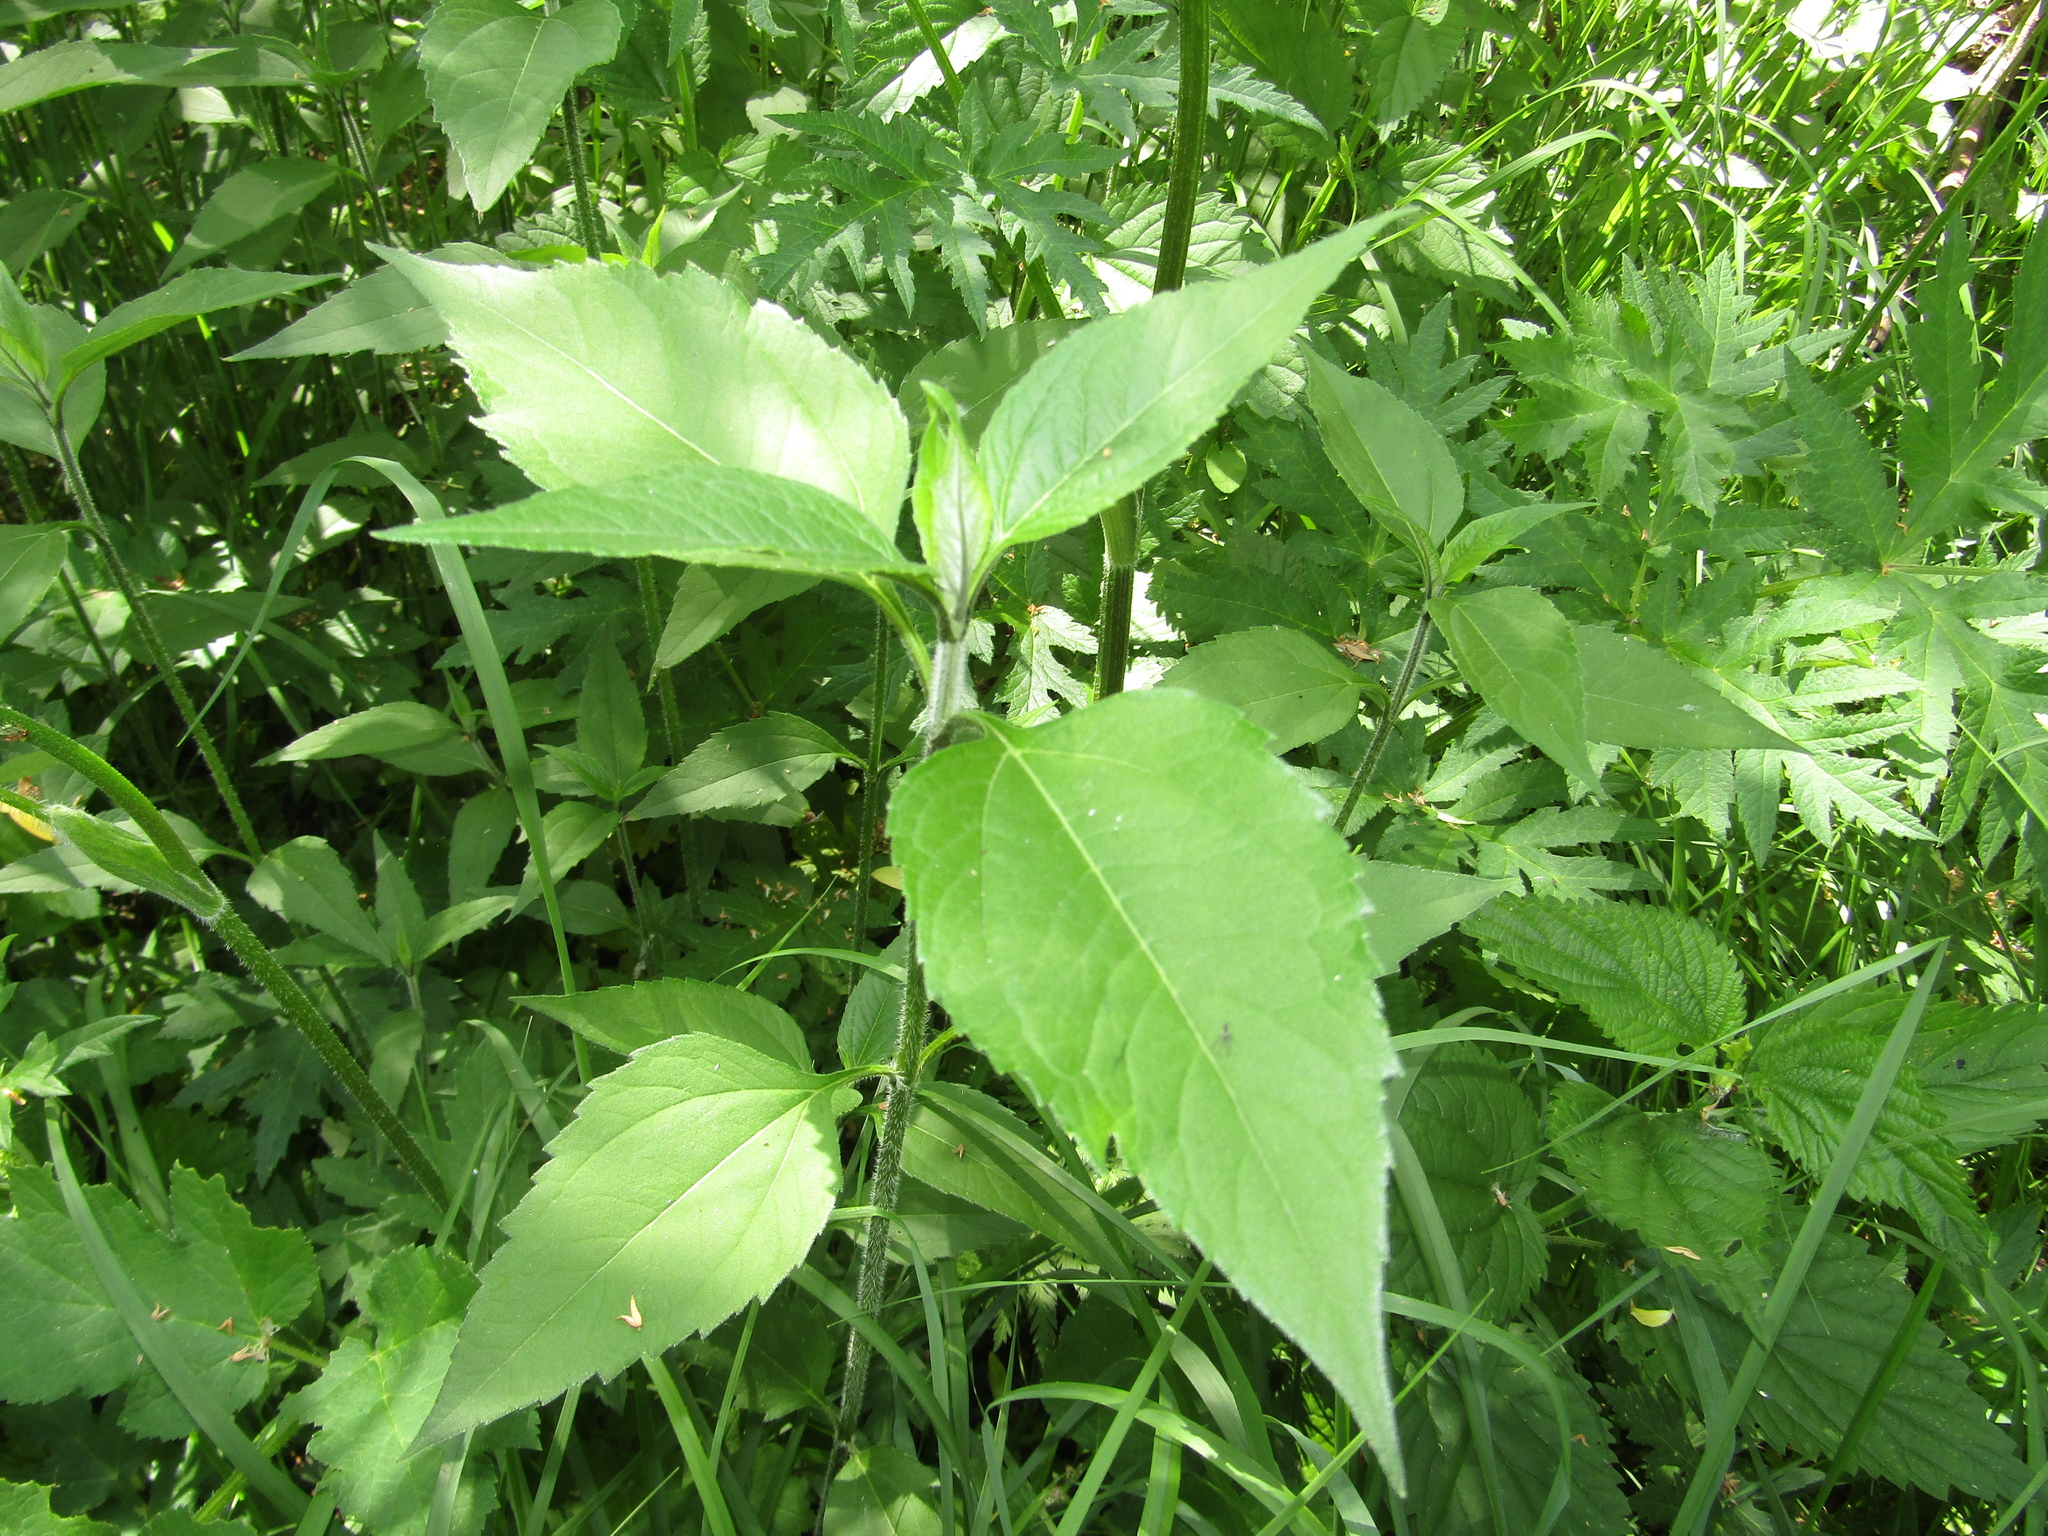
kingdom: Plantae
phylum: Tracheophyta
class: Magnoliopsida
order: Asterales
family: Asteraceae
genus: Helianthus
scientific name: Helianthus tuberosus
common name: Jerusalem artichoke
